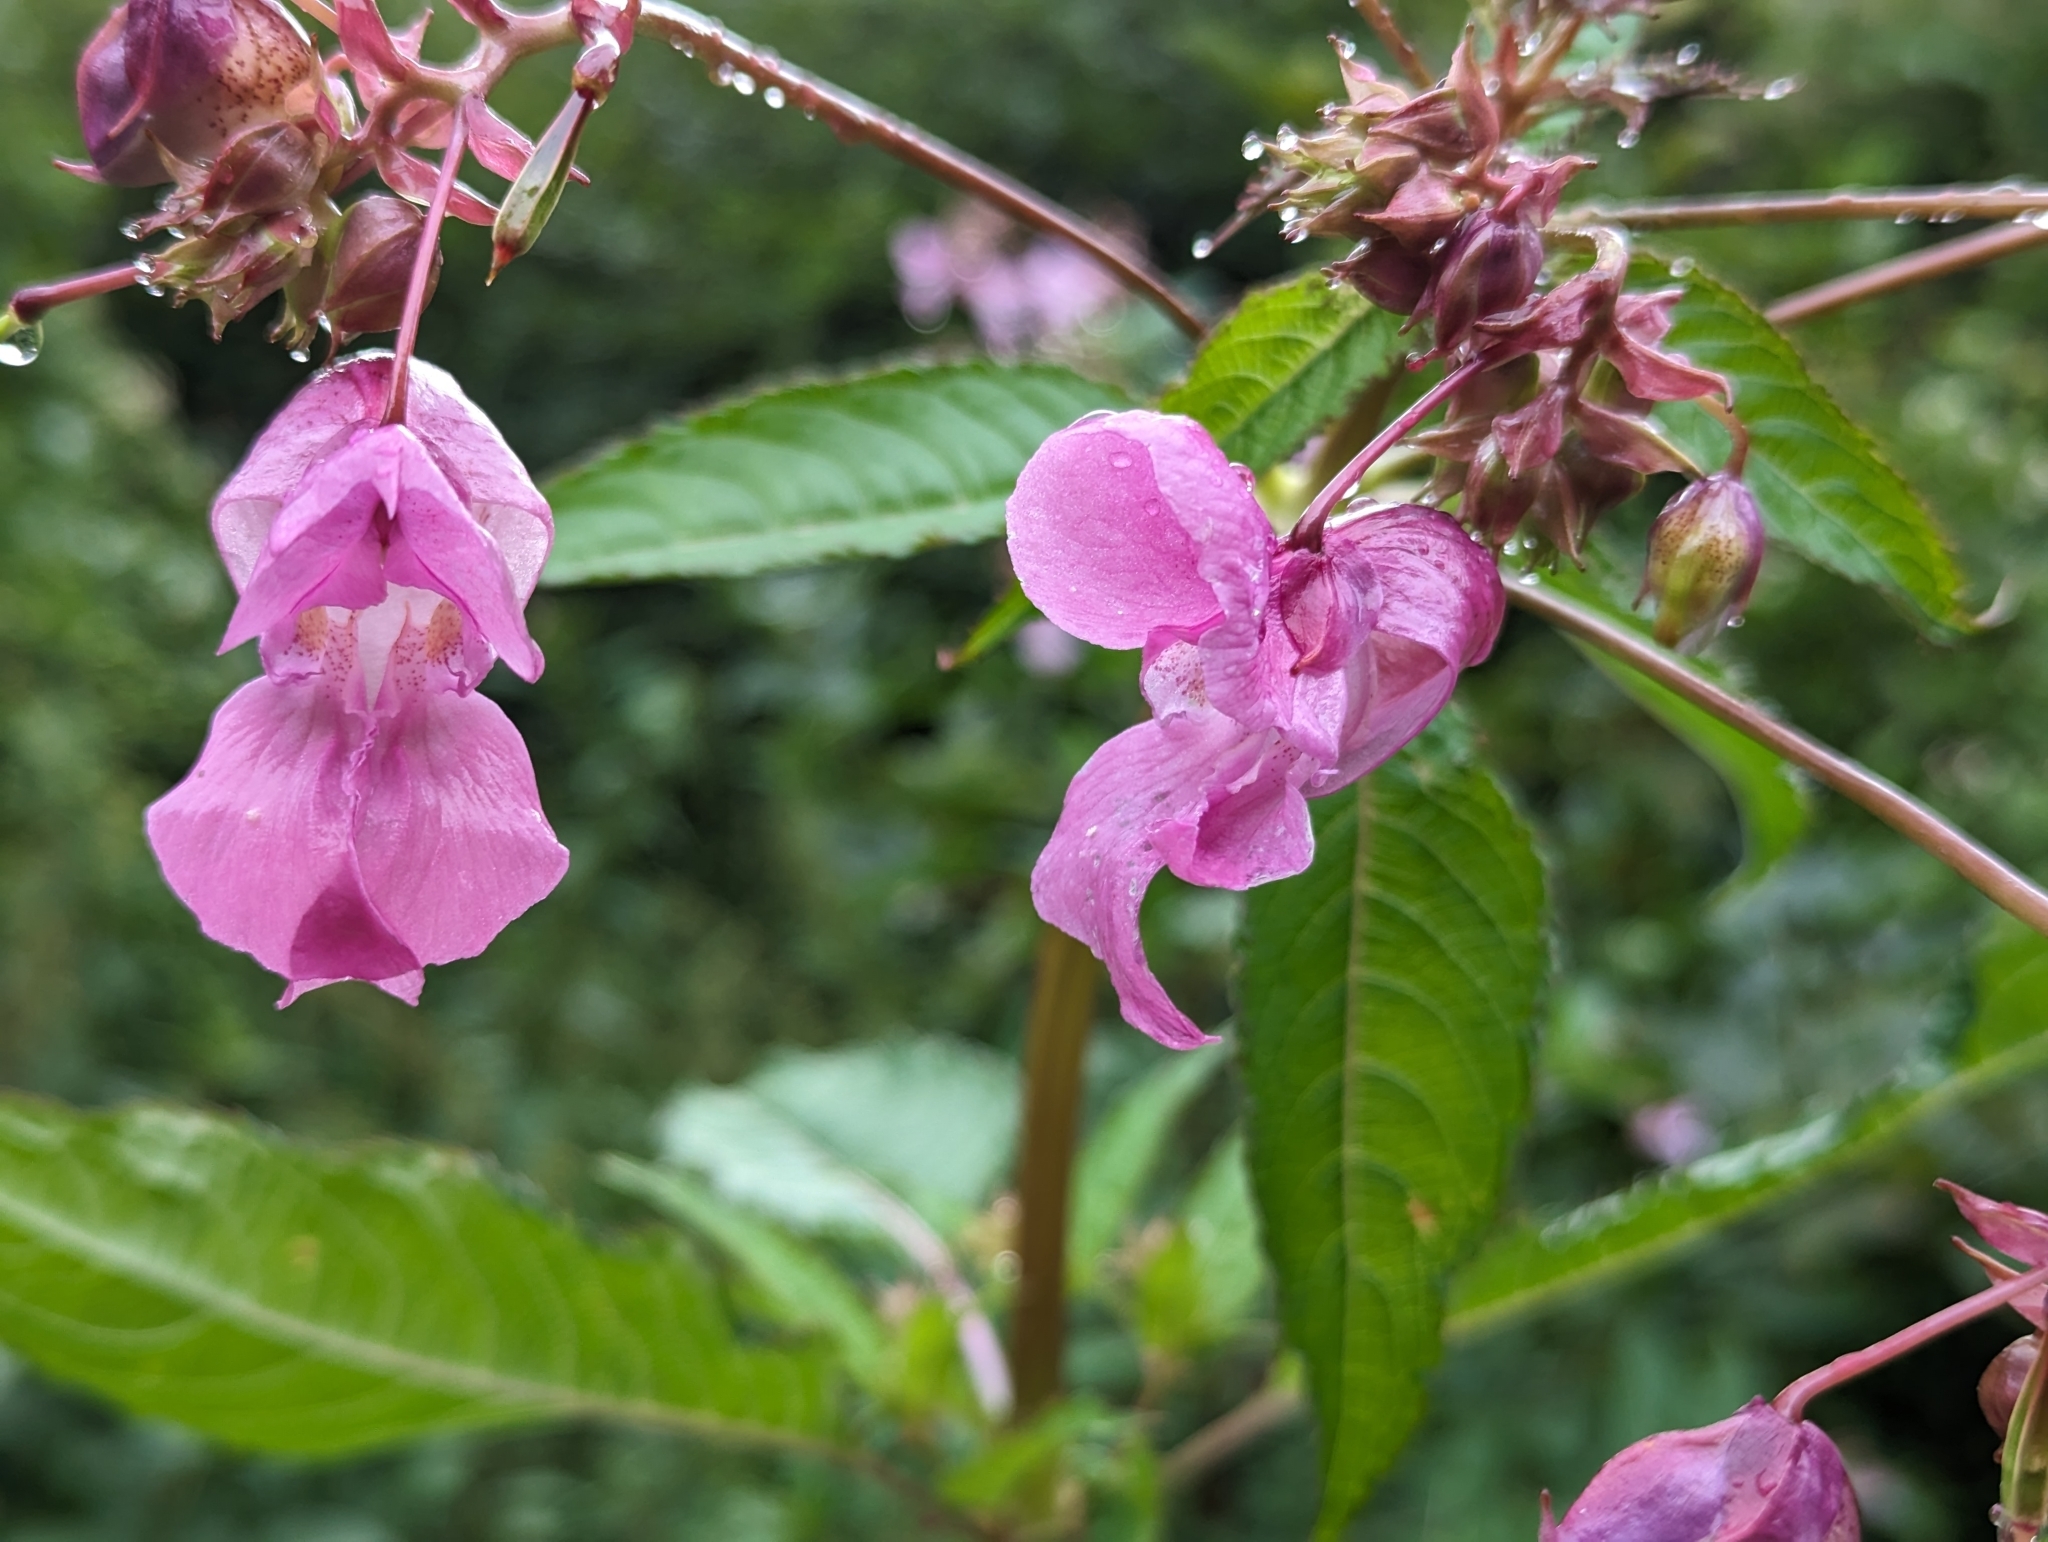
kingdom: Plantae
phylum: Tracheophyta
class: Magnoliopsida
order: Ericales
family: Balsaminaceae
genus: Impatiens
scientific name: Impatiens glandulifera
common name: Himalayan balsam
